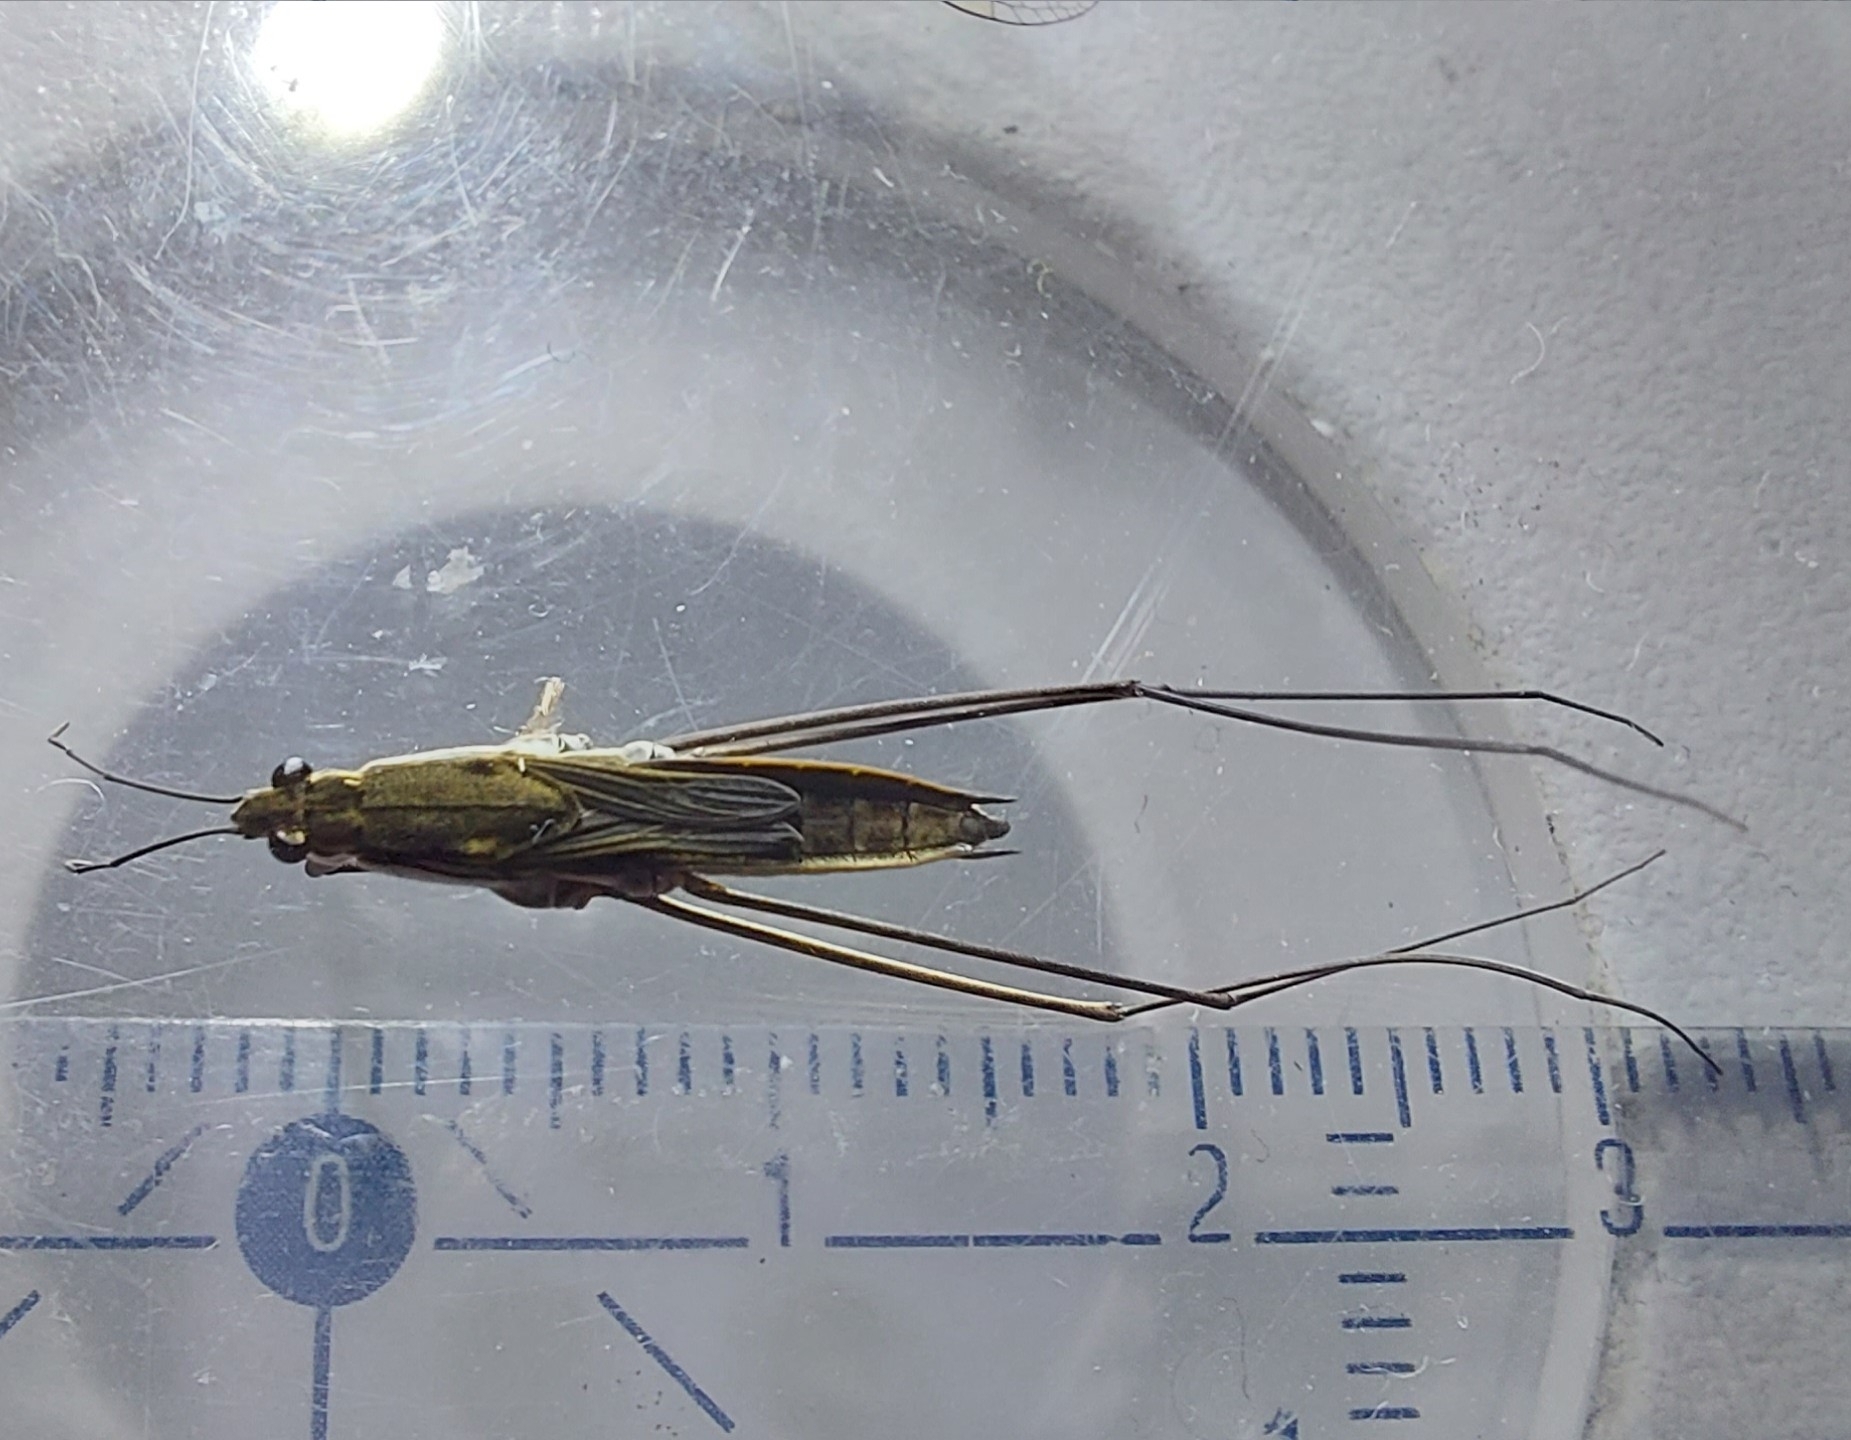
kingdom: Animalia
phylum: Arthropoda
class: Insecta
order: Hemiptera
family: Gerridae
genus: Aquarius
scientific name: Aquarius paludum
